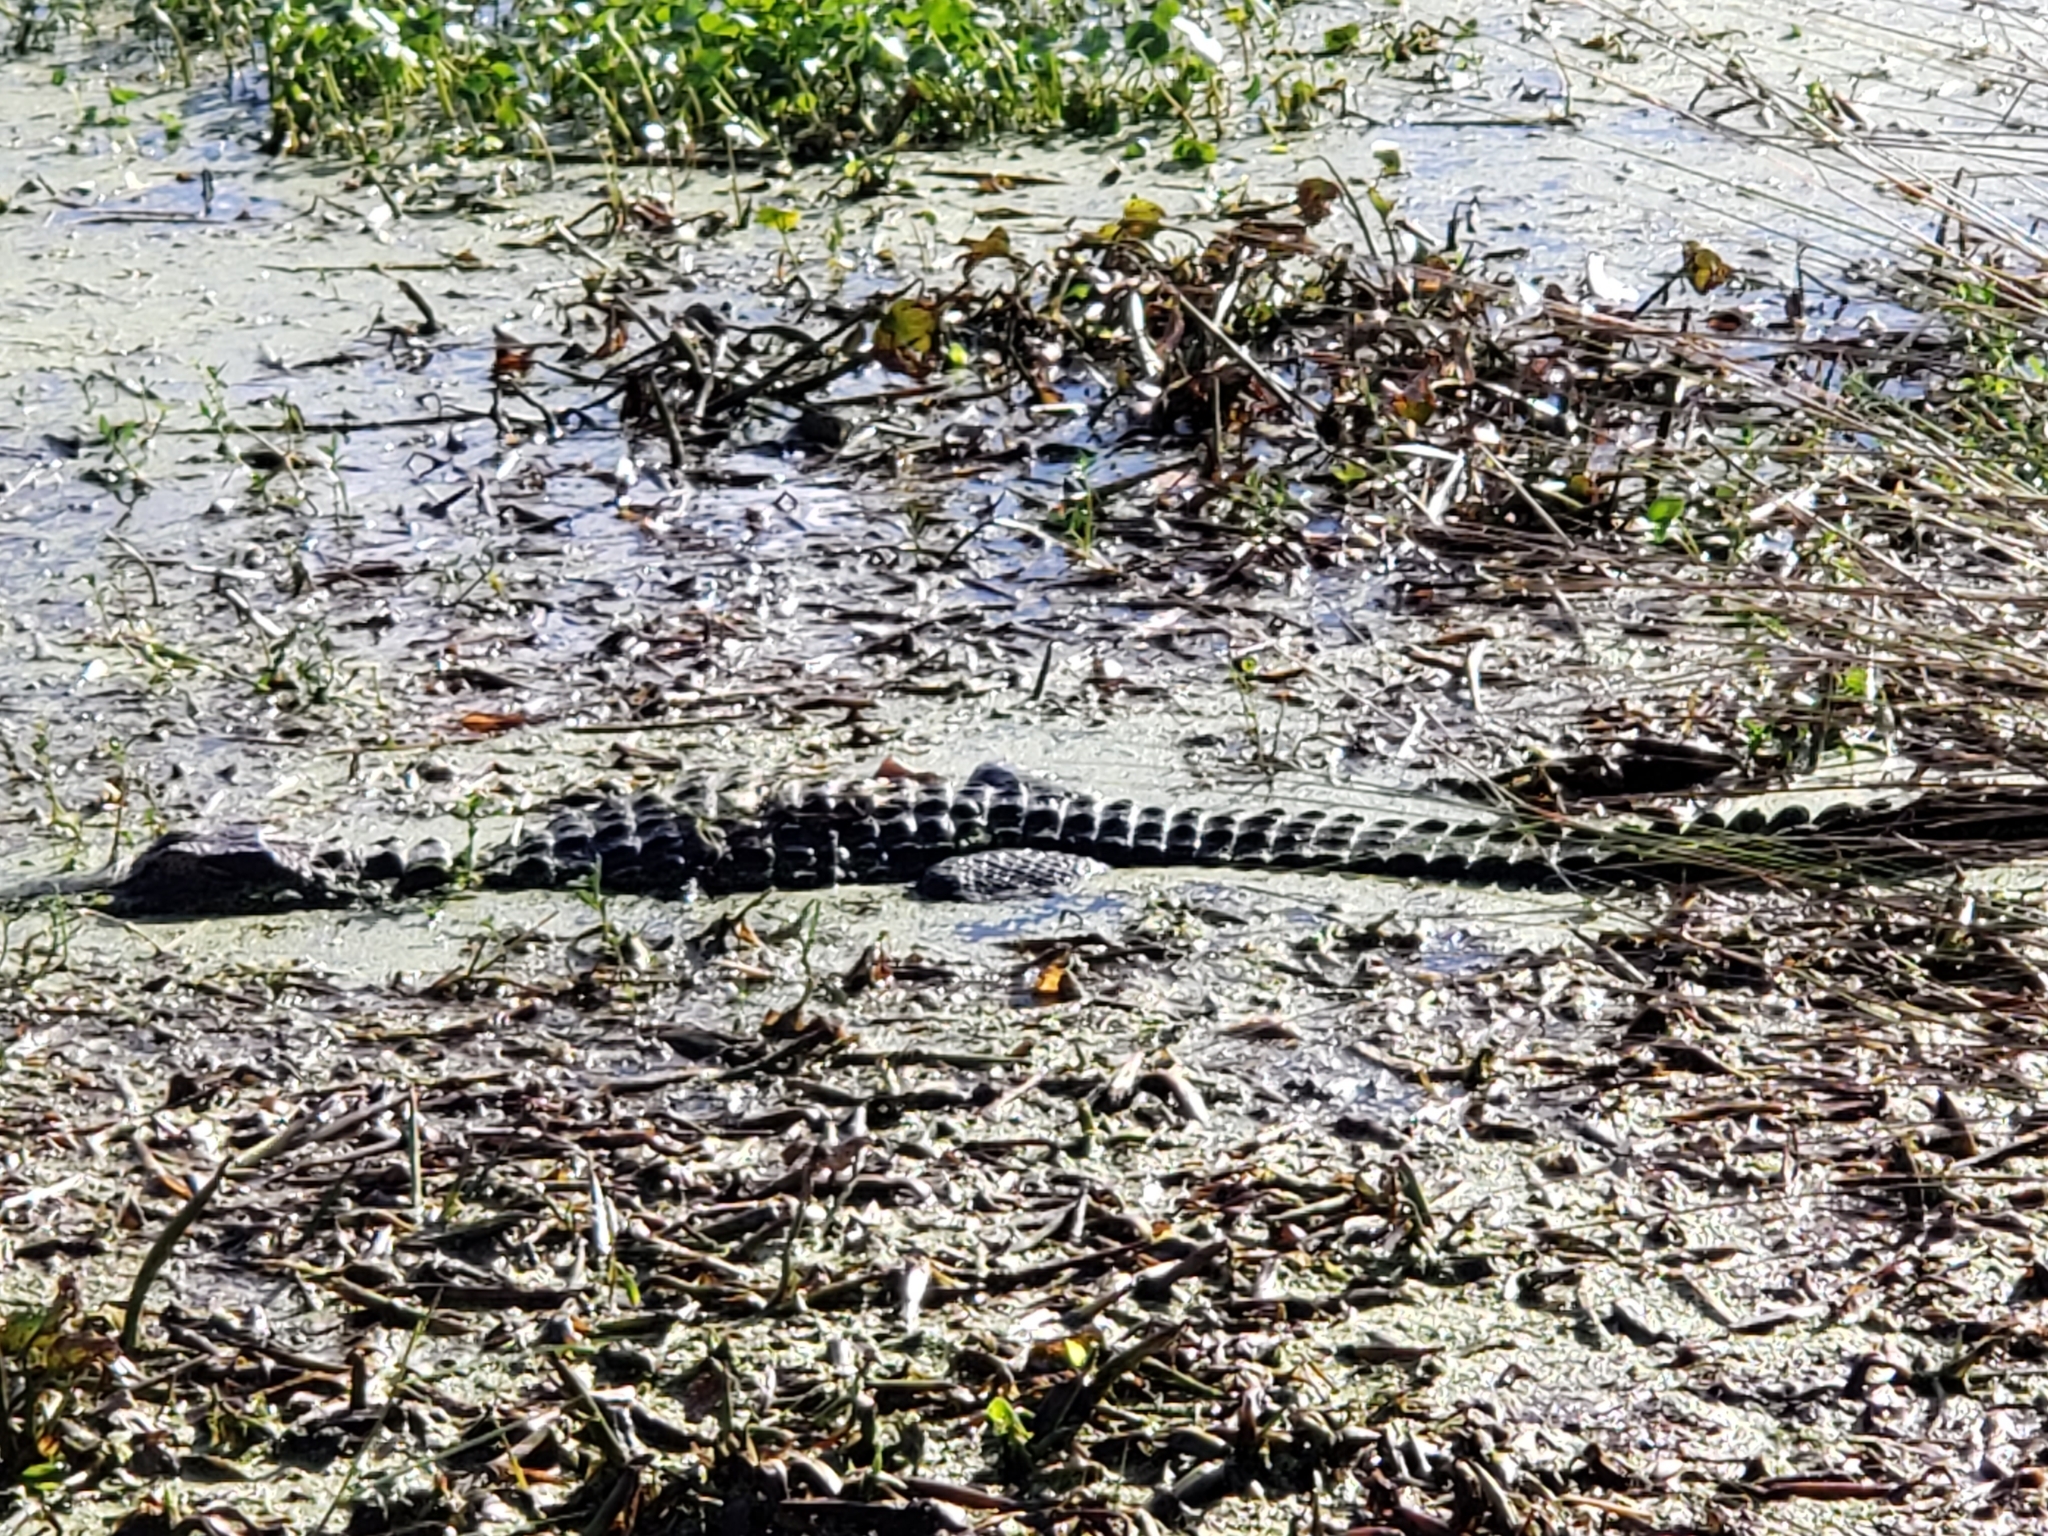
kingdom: Animalia
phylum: Chordata
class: Crocodylia
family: Alligatoridae
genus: Alligator
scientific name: Alligator mississippiensis
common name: American alligator
